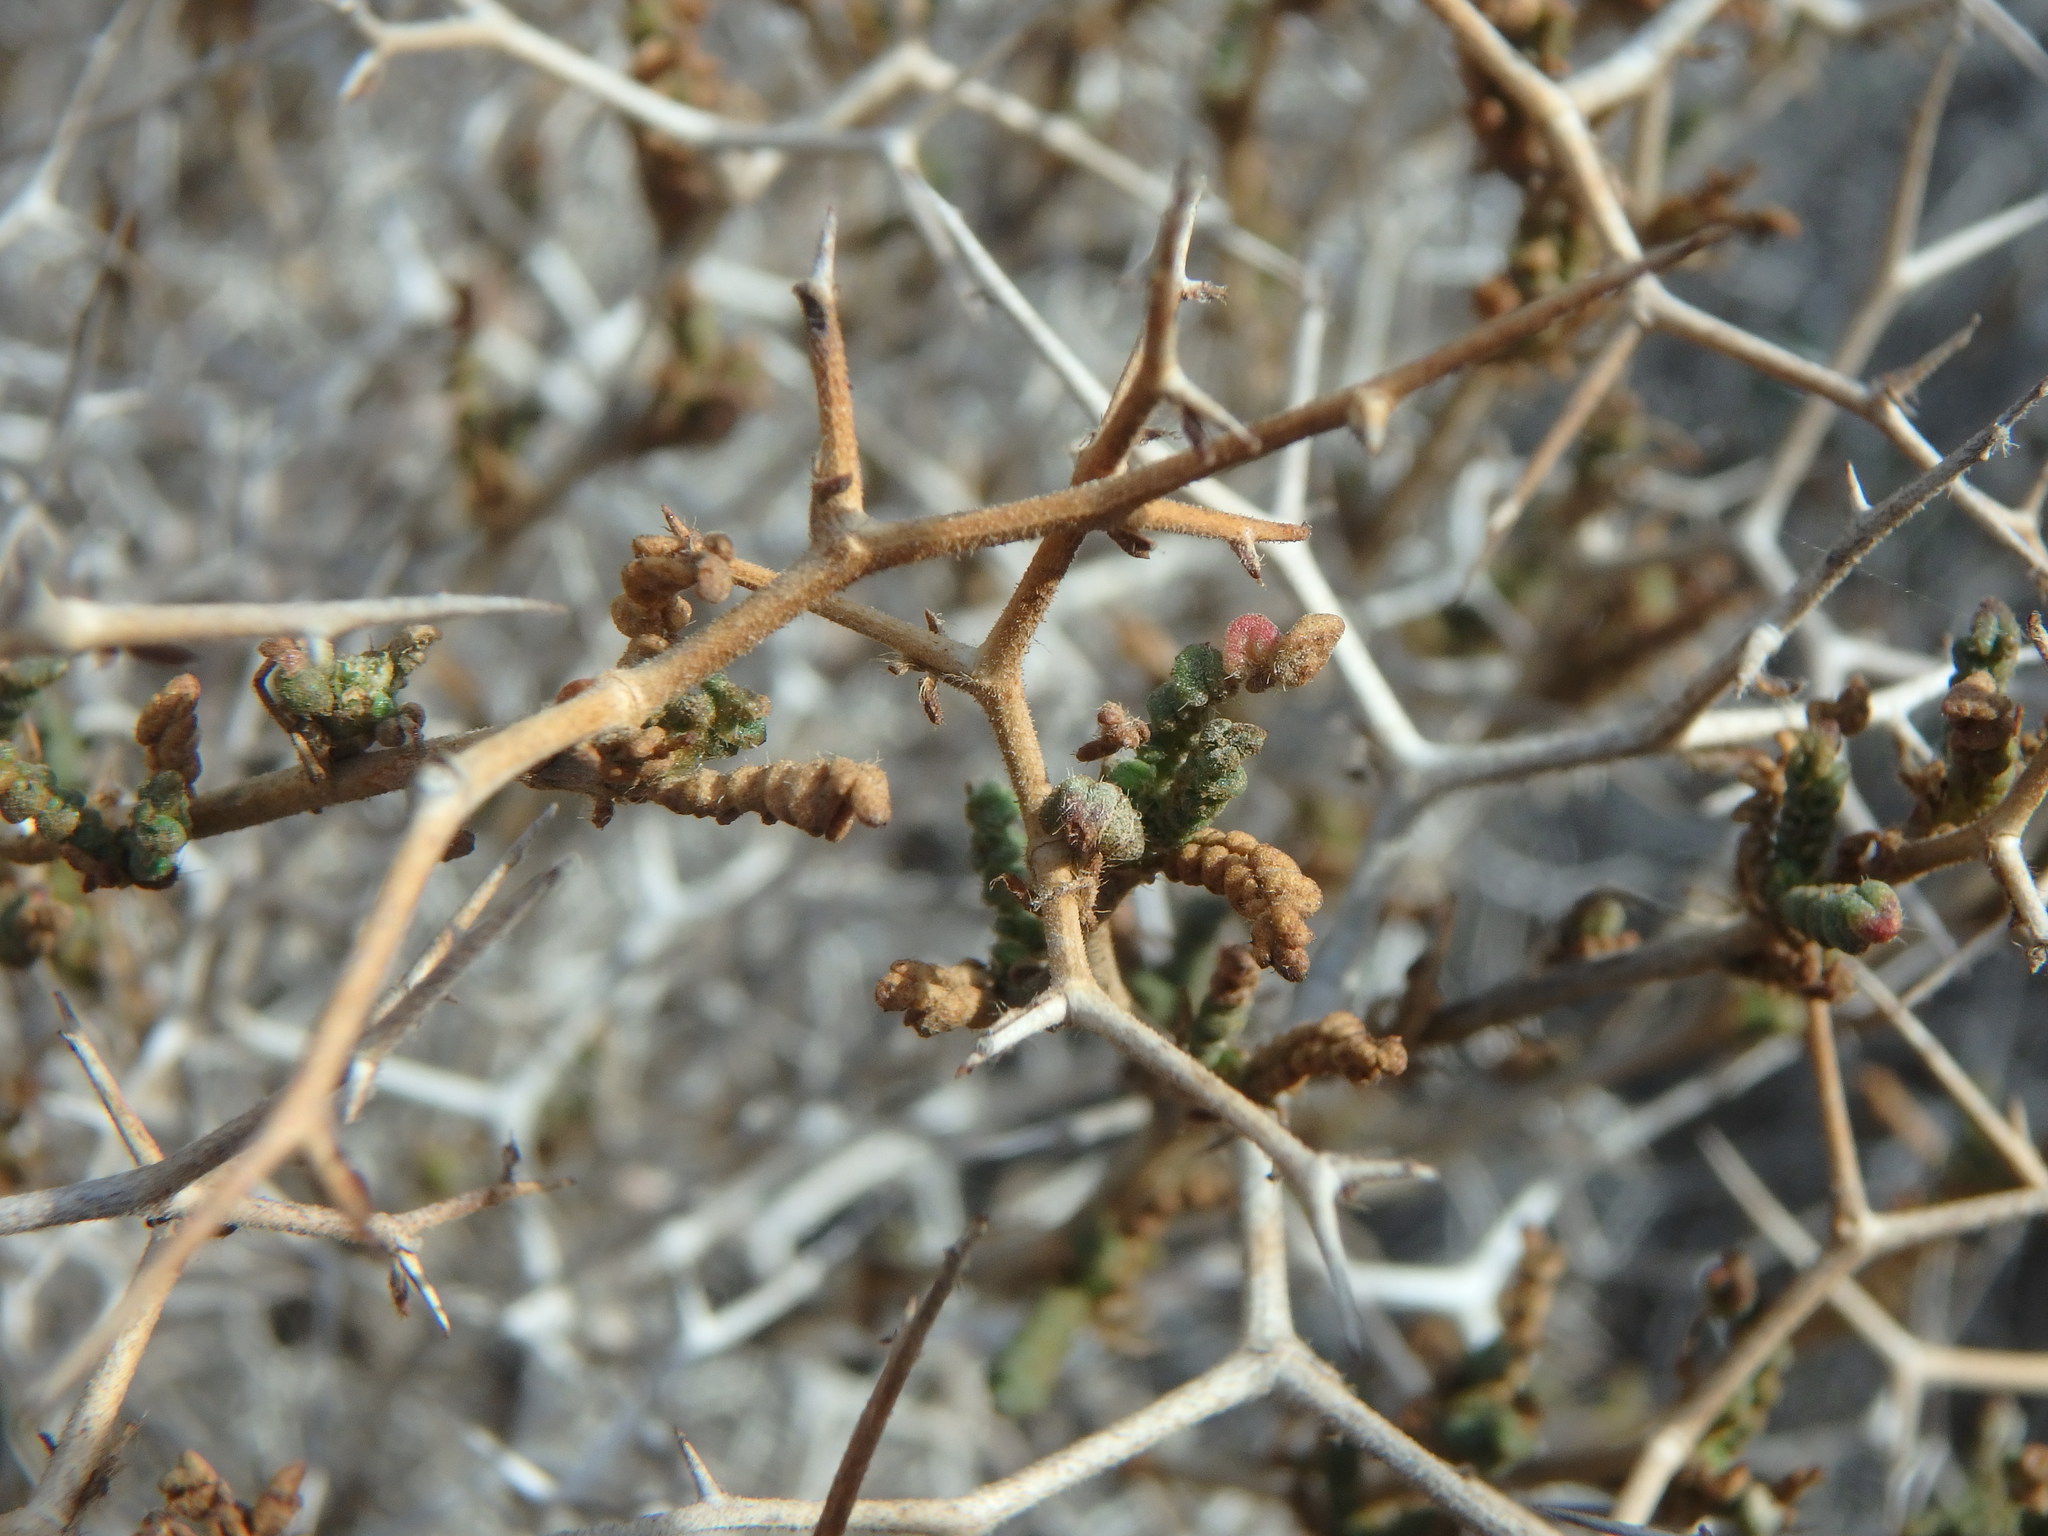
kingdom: Plantae
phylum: Tracheophyta
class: Magnoliopsida
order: Rosales
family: Rosaceae
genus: Sarcopoterium
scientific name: Sarcopoterium spinosum
